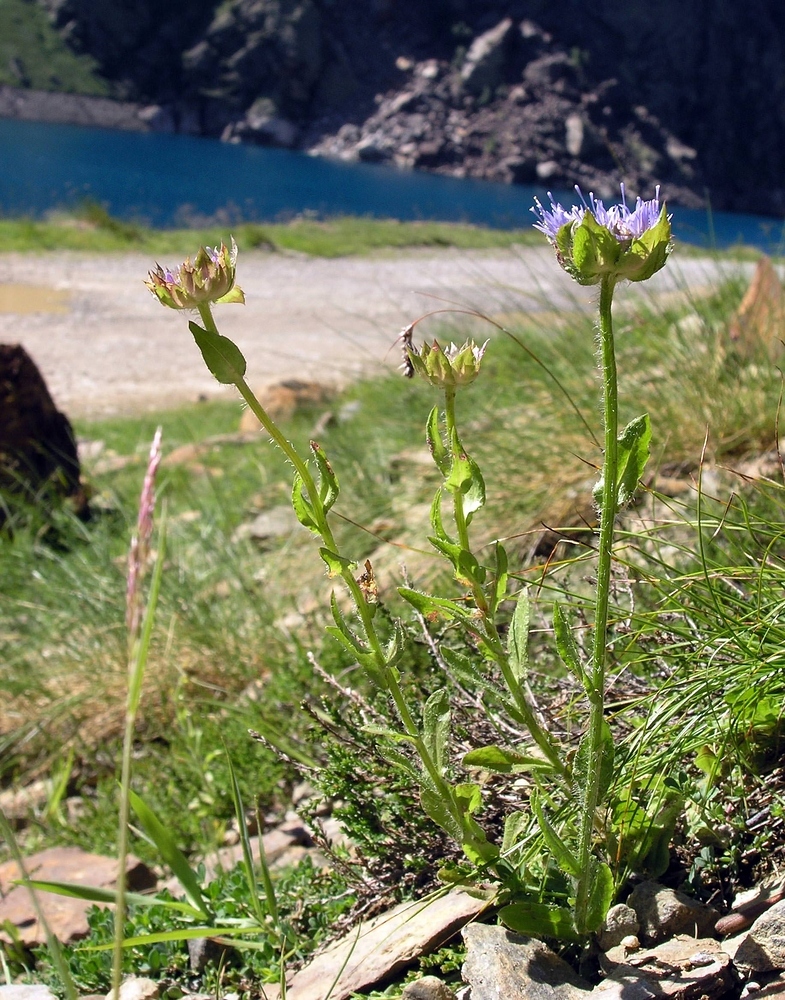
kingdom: Plantae
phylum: Tracheophyta
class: Magnoliopsida
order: Asterales
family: Campanulaceae
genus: Jasione
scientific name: Jasione laevis
